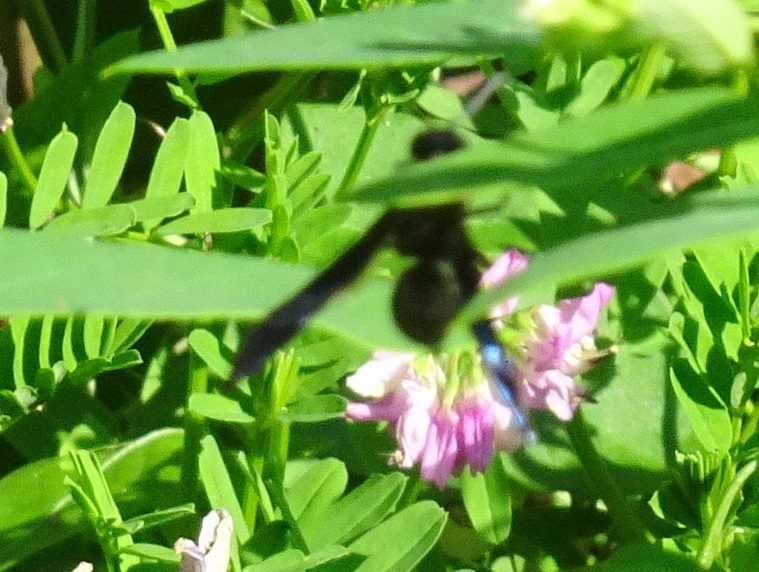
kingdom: Animalia
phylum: Arthropoda
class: Insecta
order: Hymenoptera
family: Eumenidae
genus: Monobia
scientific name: Monobia quadridens
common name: Four-toothed mason wasp
